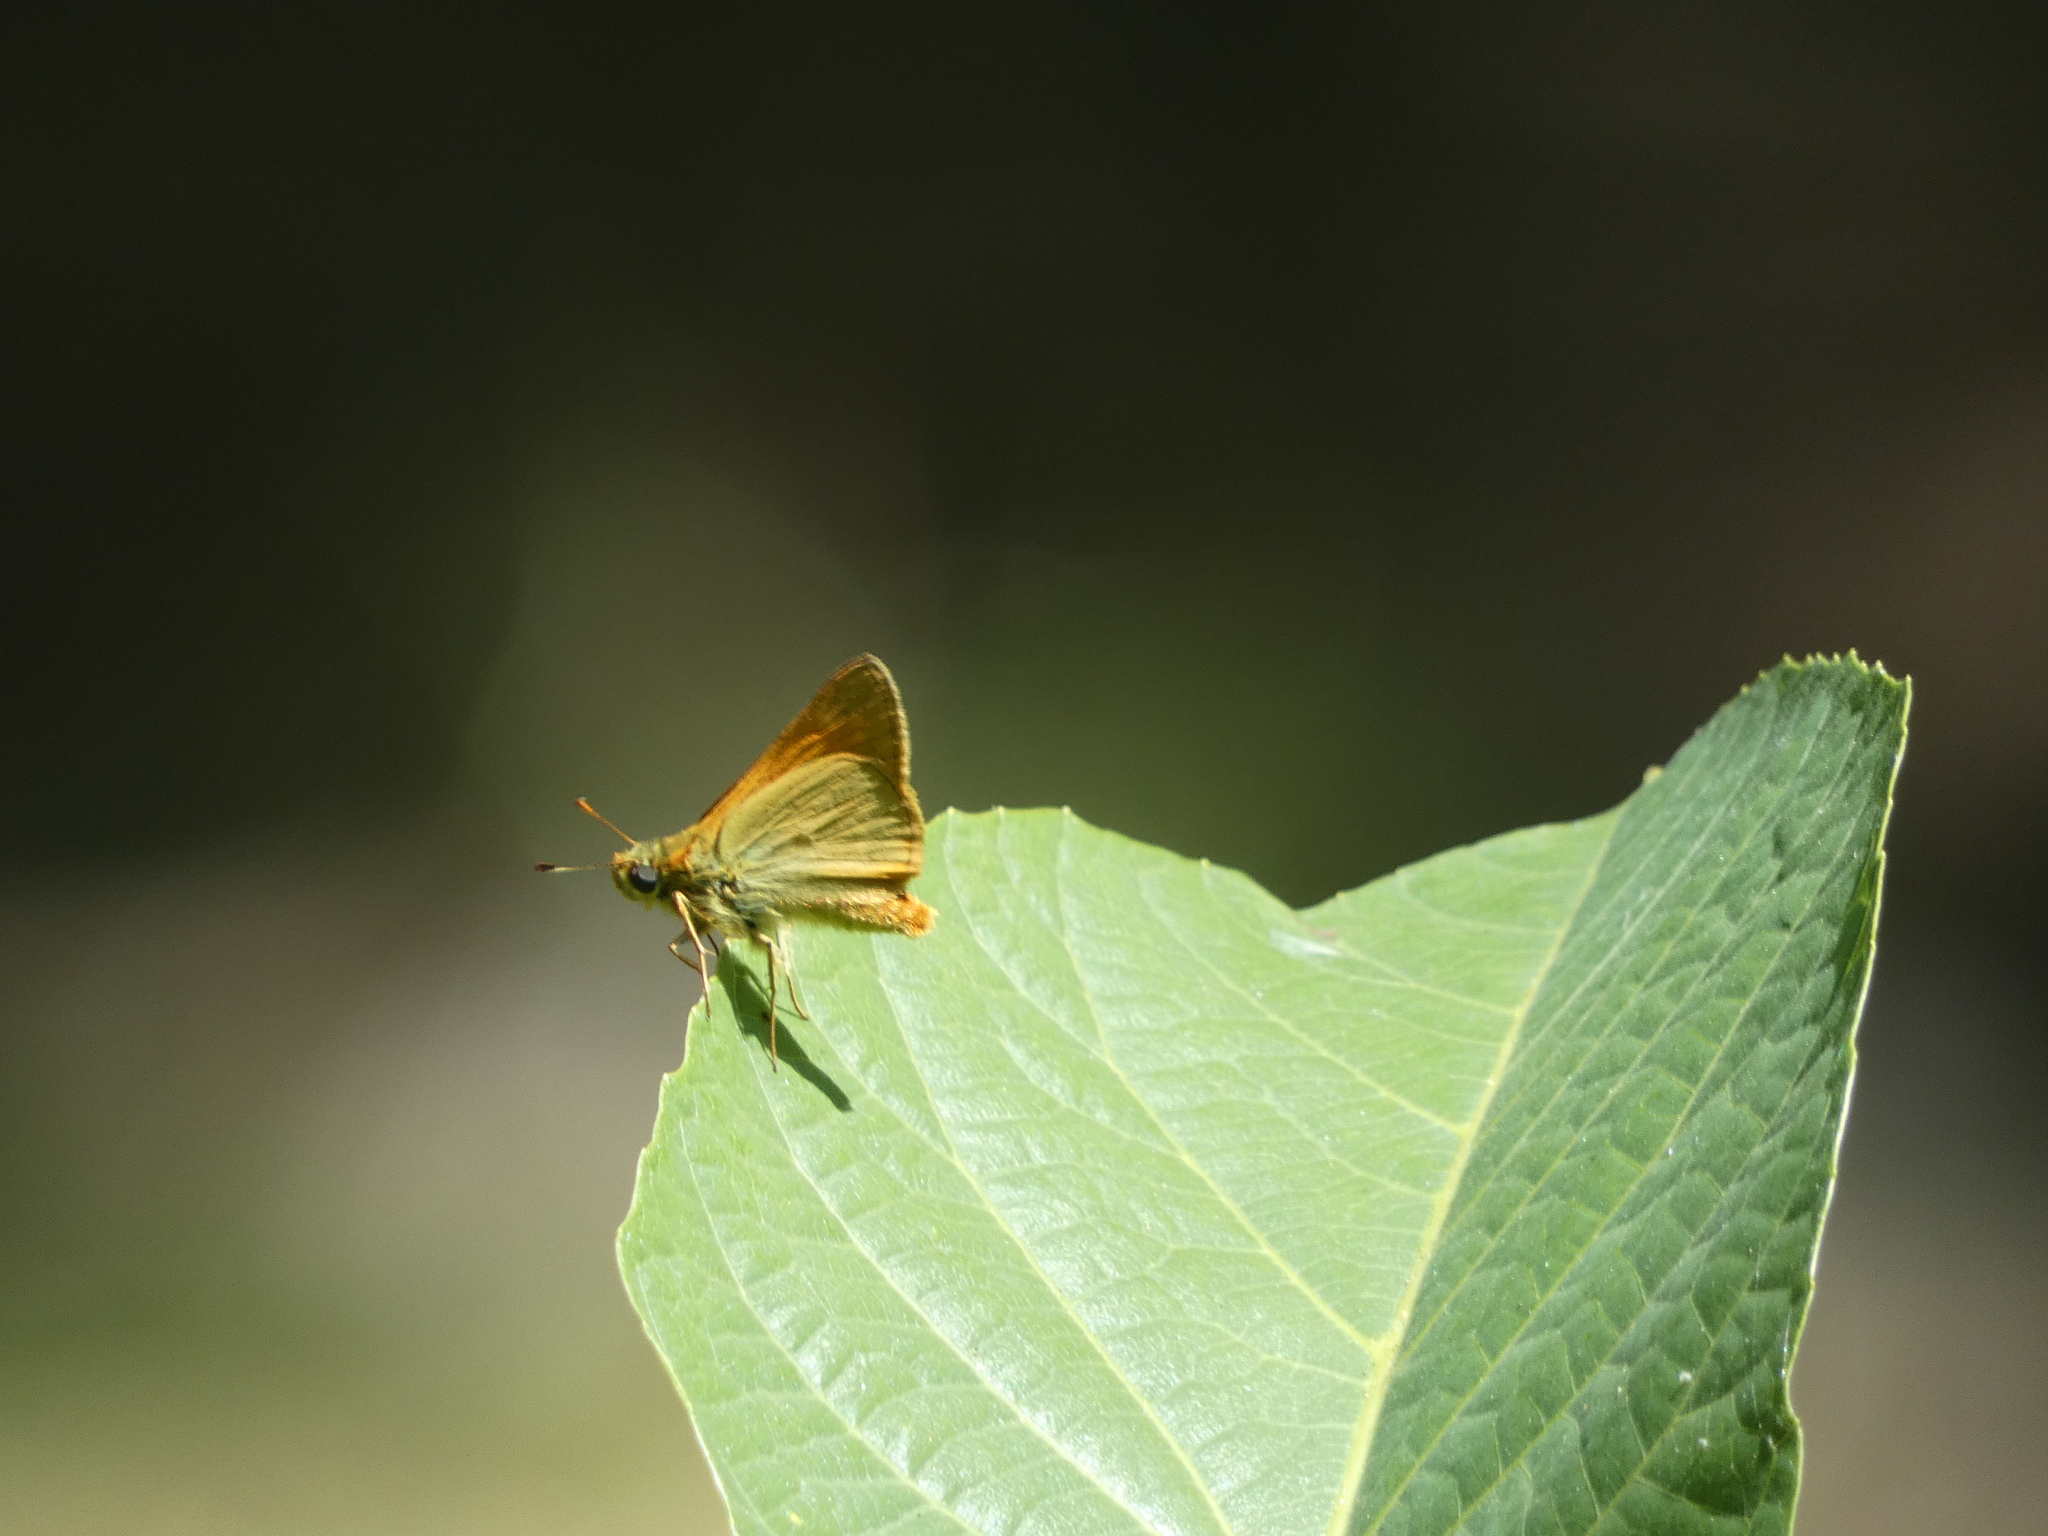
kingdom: Animalia
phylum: Arthropoda
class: Insecta
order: Lepidoptera
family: Hesperiidae
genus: Ochlodes
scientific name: Ochlodes venata
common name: Large skipper
